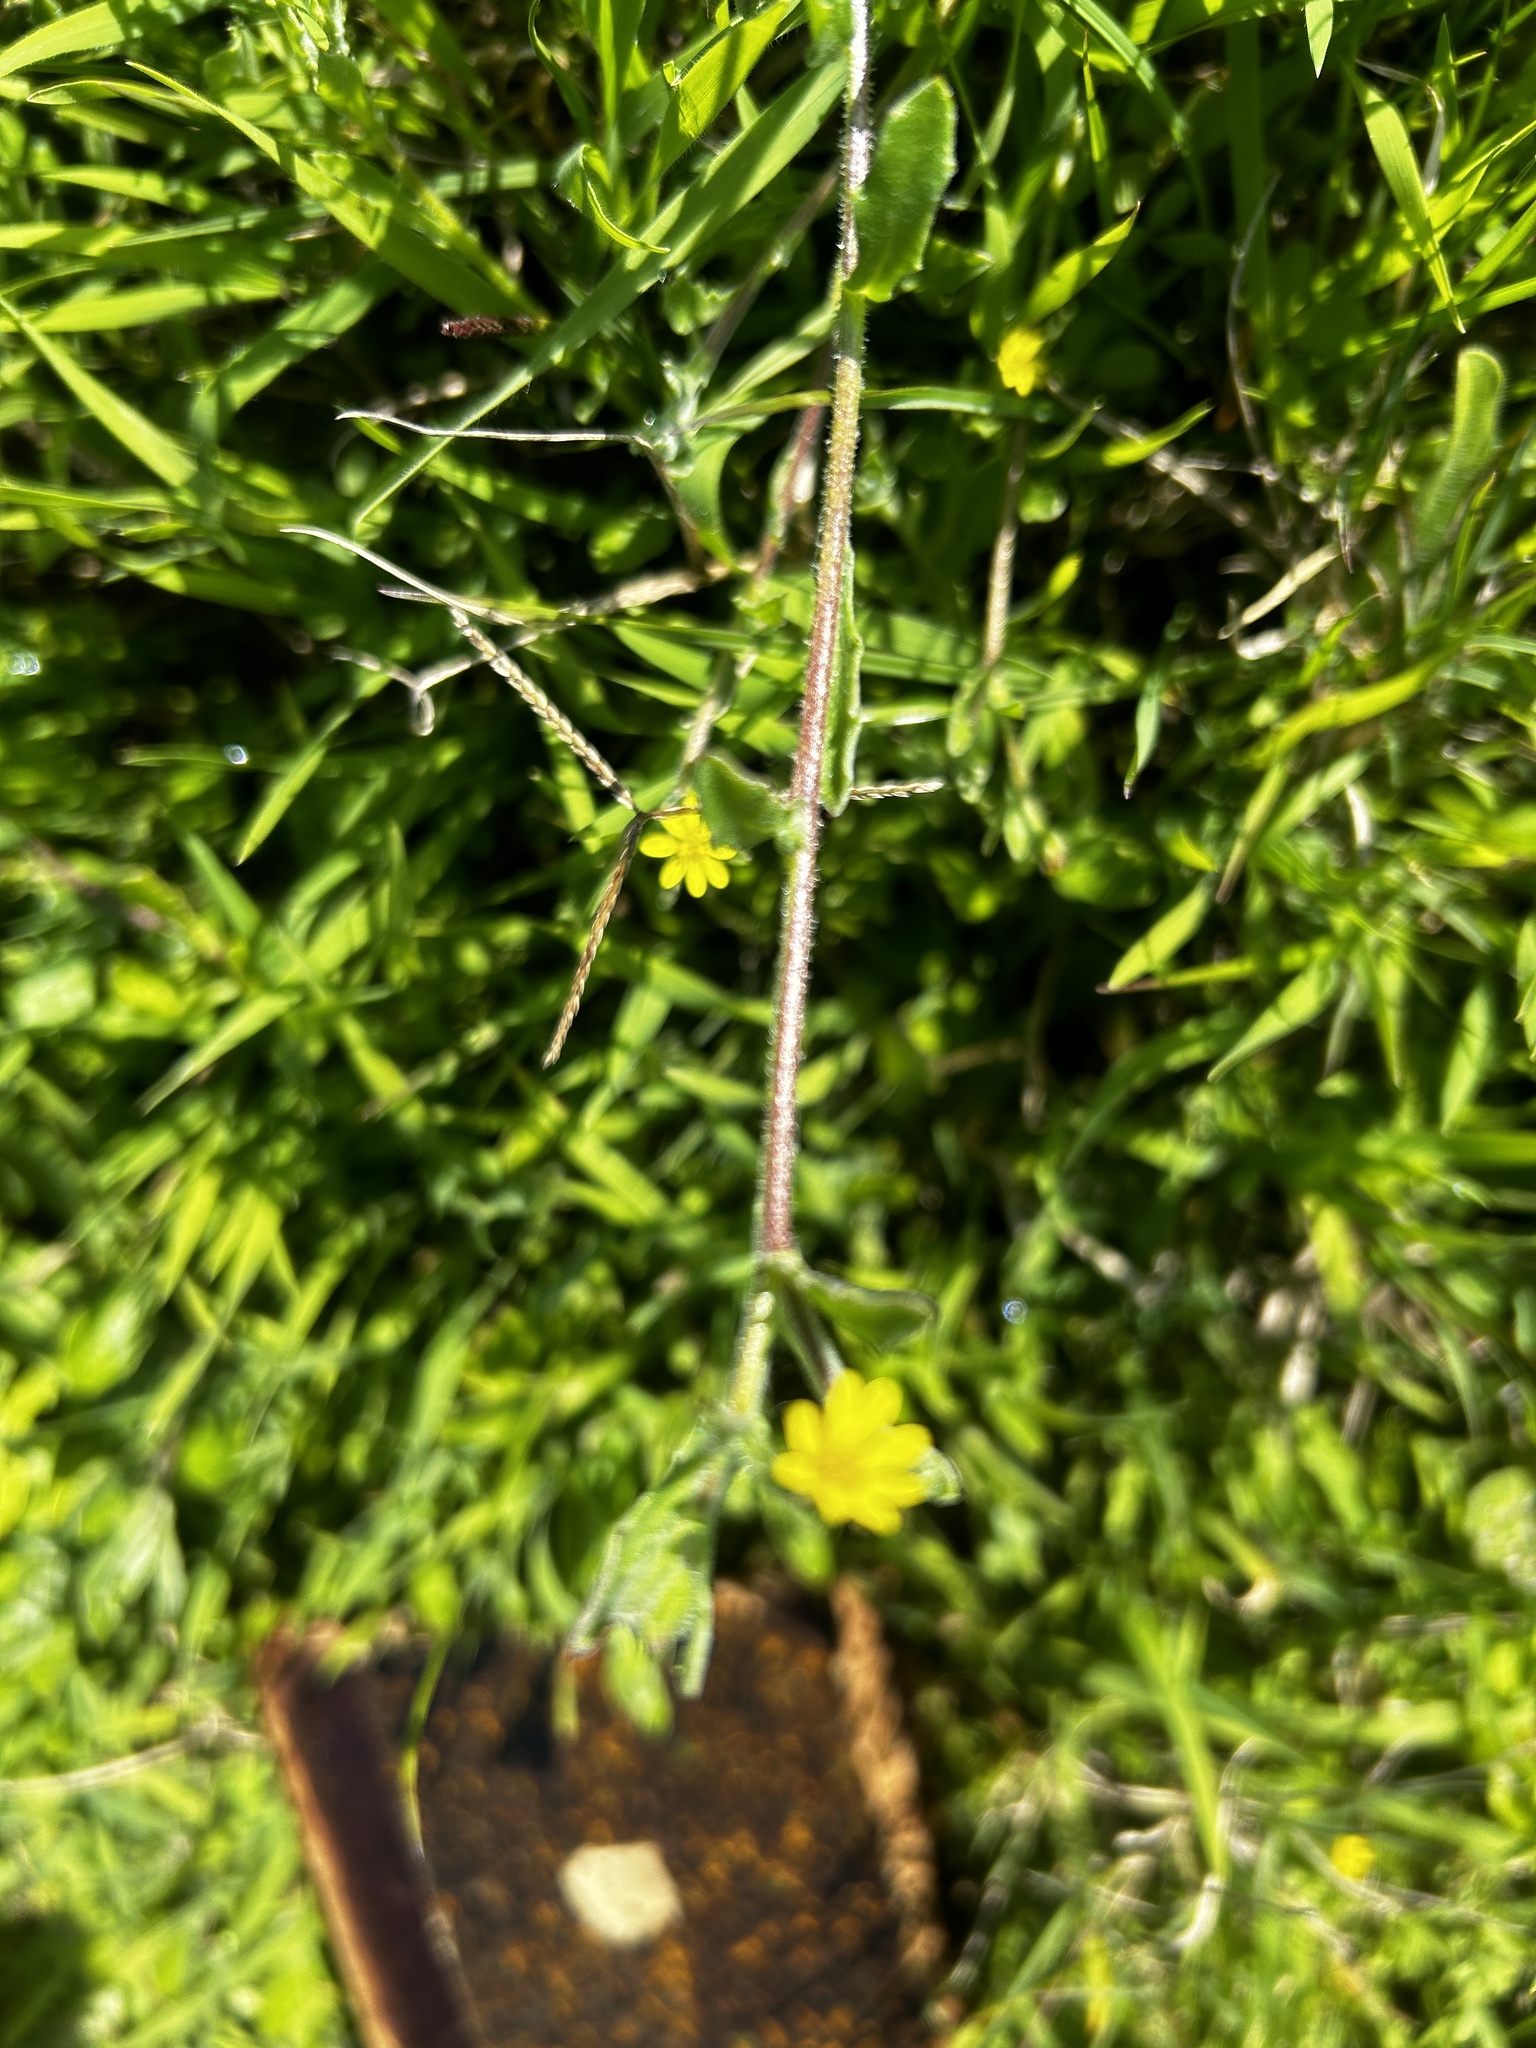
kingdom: Plantae
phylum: Tracheophyta
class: Magnoliopsida
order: Asterales
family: Asteraceae
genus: Osteospermum
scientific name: Osteospermum calendulaceum
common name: Stinking roger
